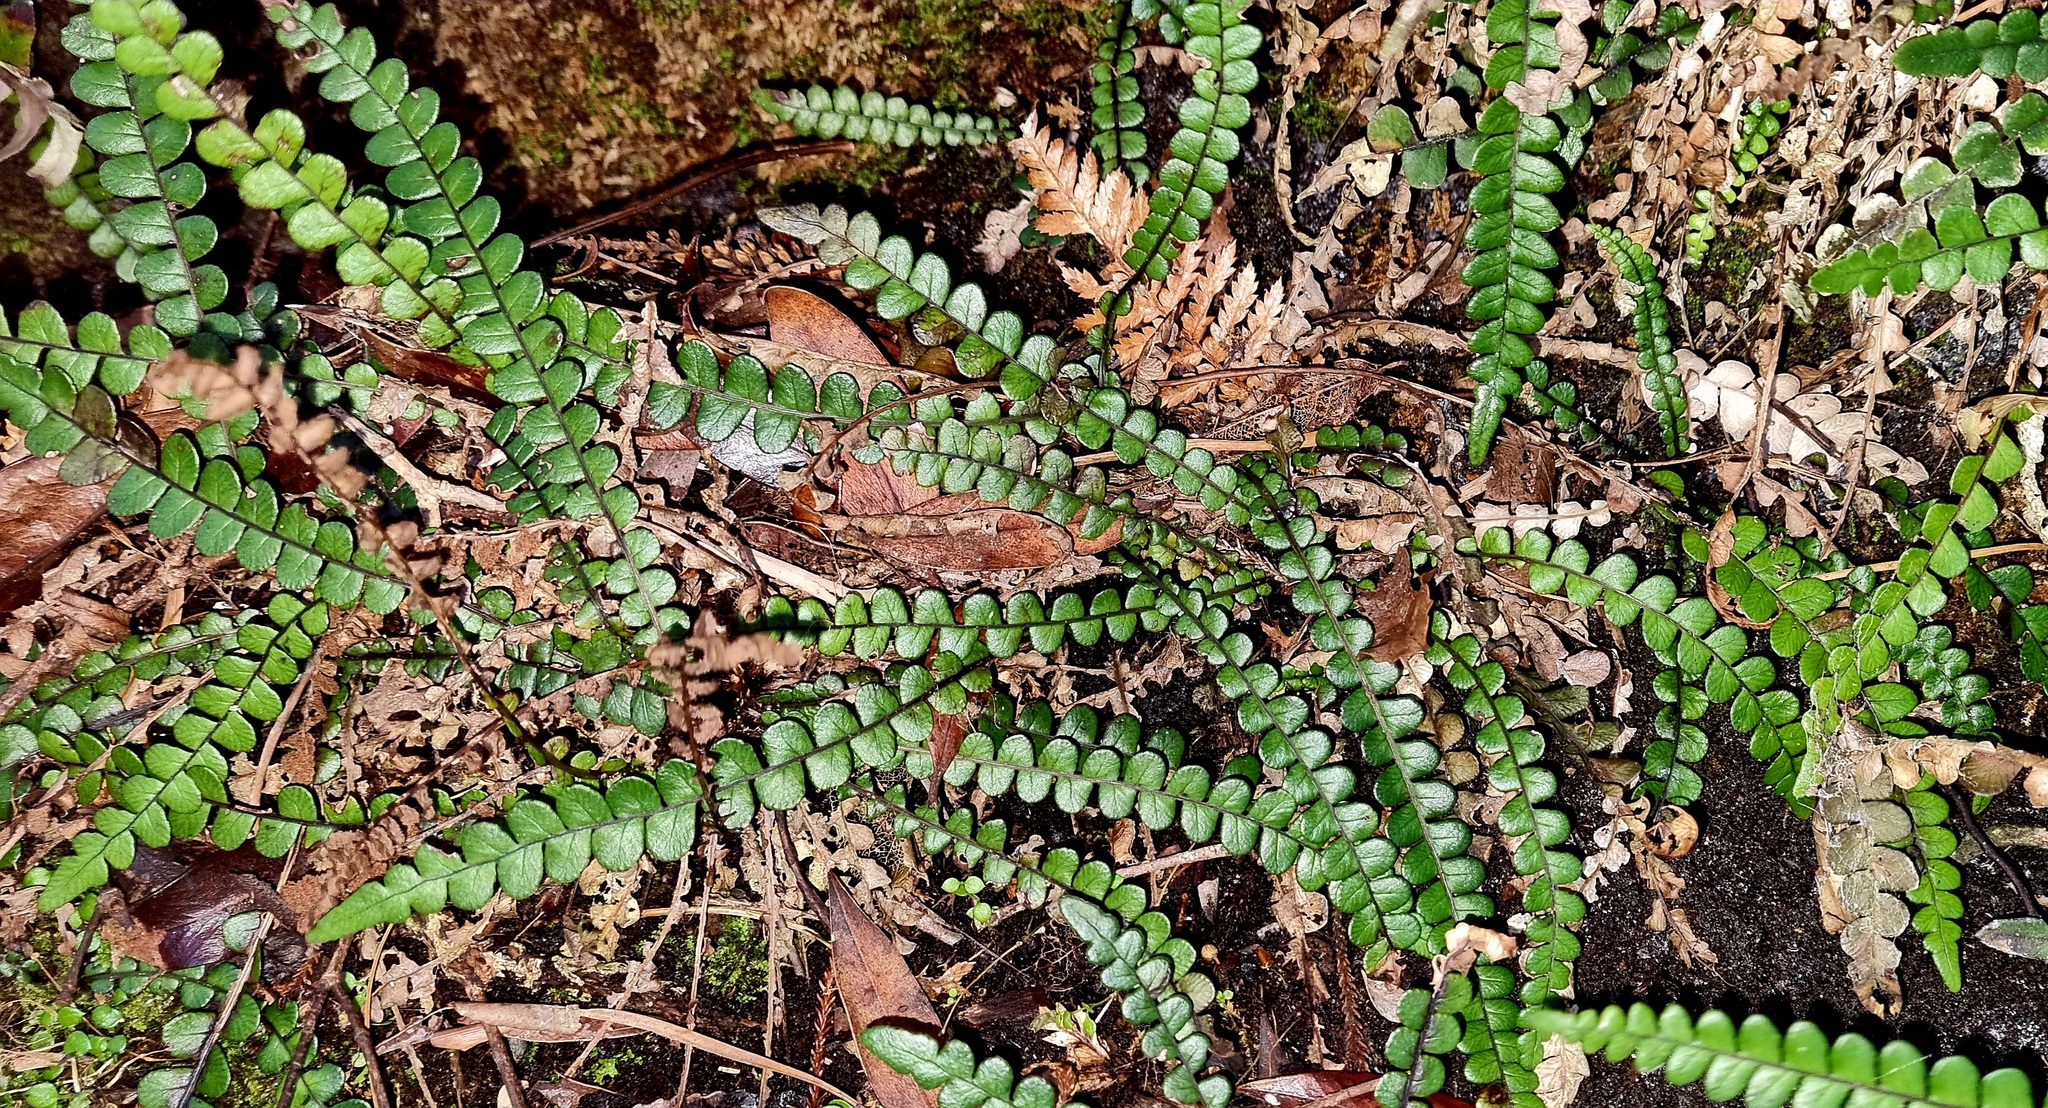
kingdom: Plantae
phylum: Tracheophyta
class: Polypodiopsida
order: Polypodiales
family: Blechnaceae
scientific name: Blechnaceae
